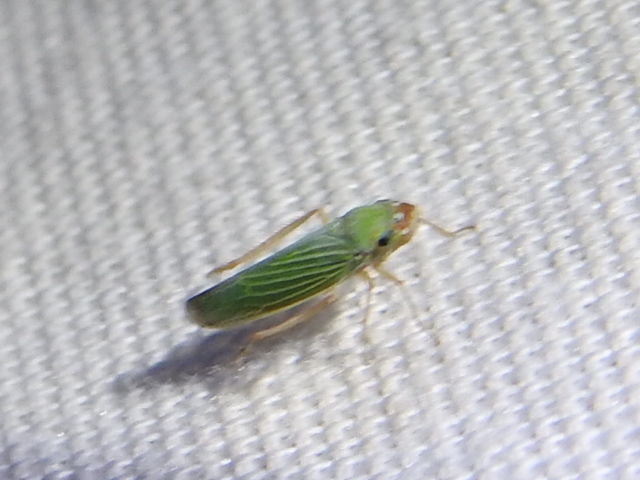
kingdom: Animalia
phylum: Arthropoda
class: Insecta
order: Hemiptera
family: Cicadellidae
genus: Xyphon
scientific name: Xyphon flaviceps
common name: Yellowheaded leafhopper
